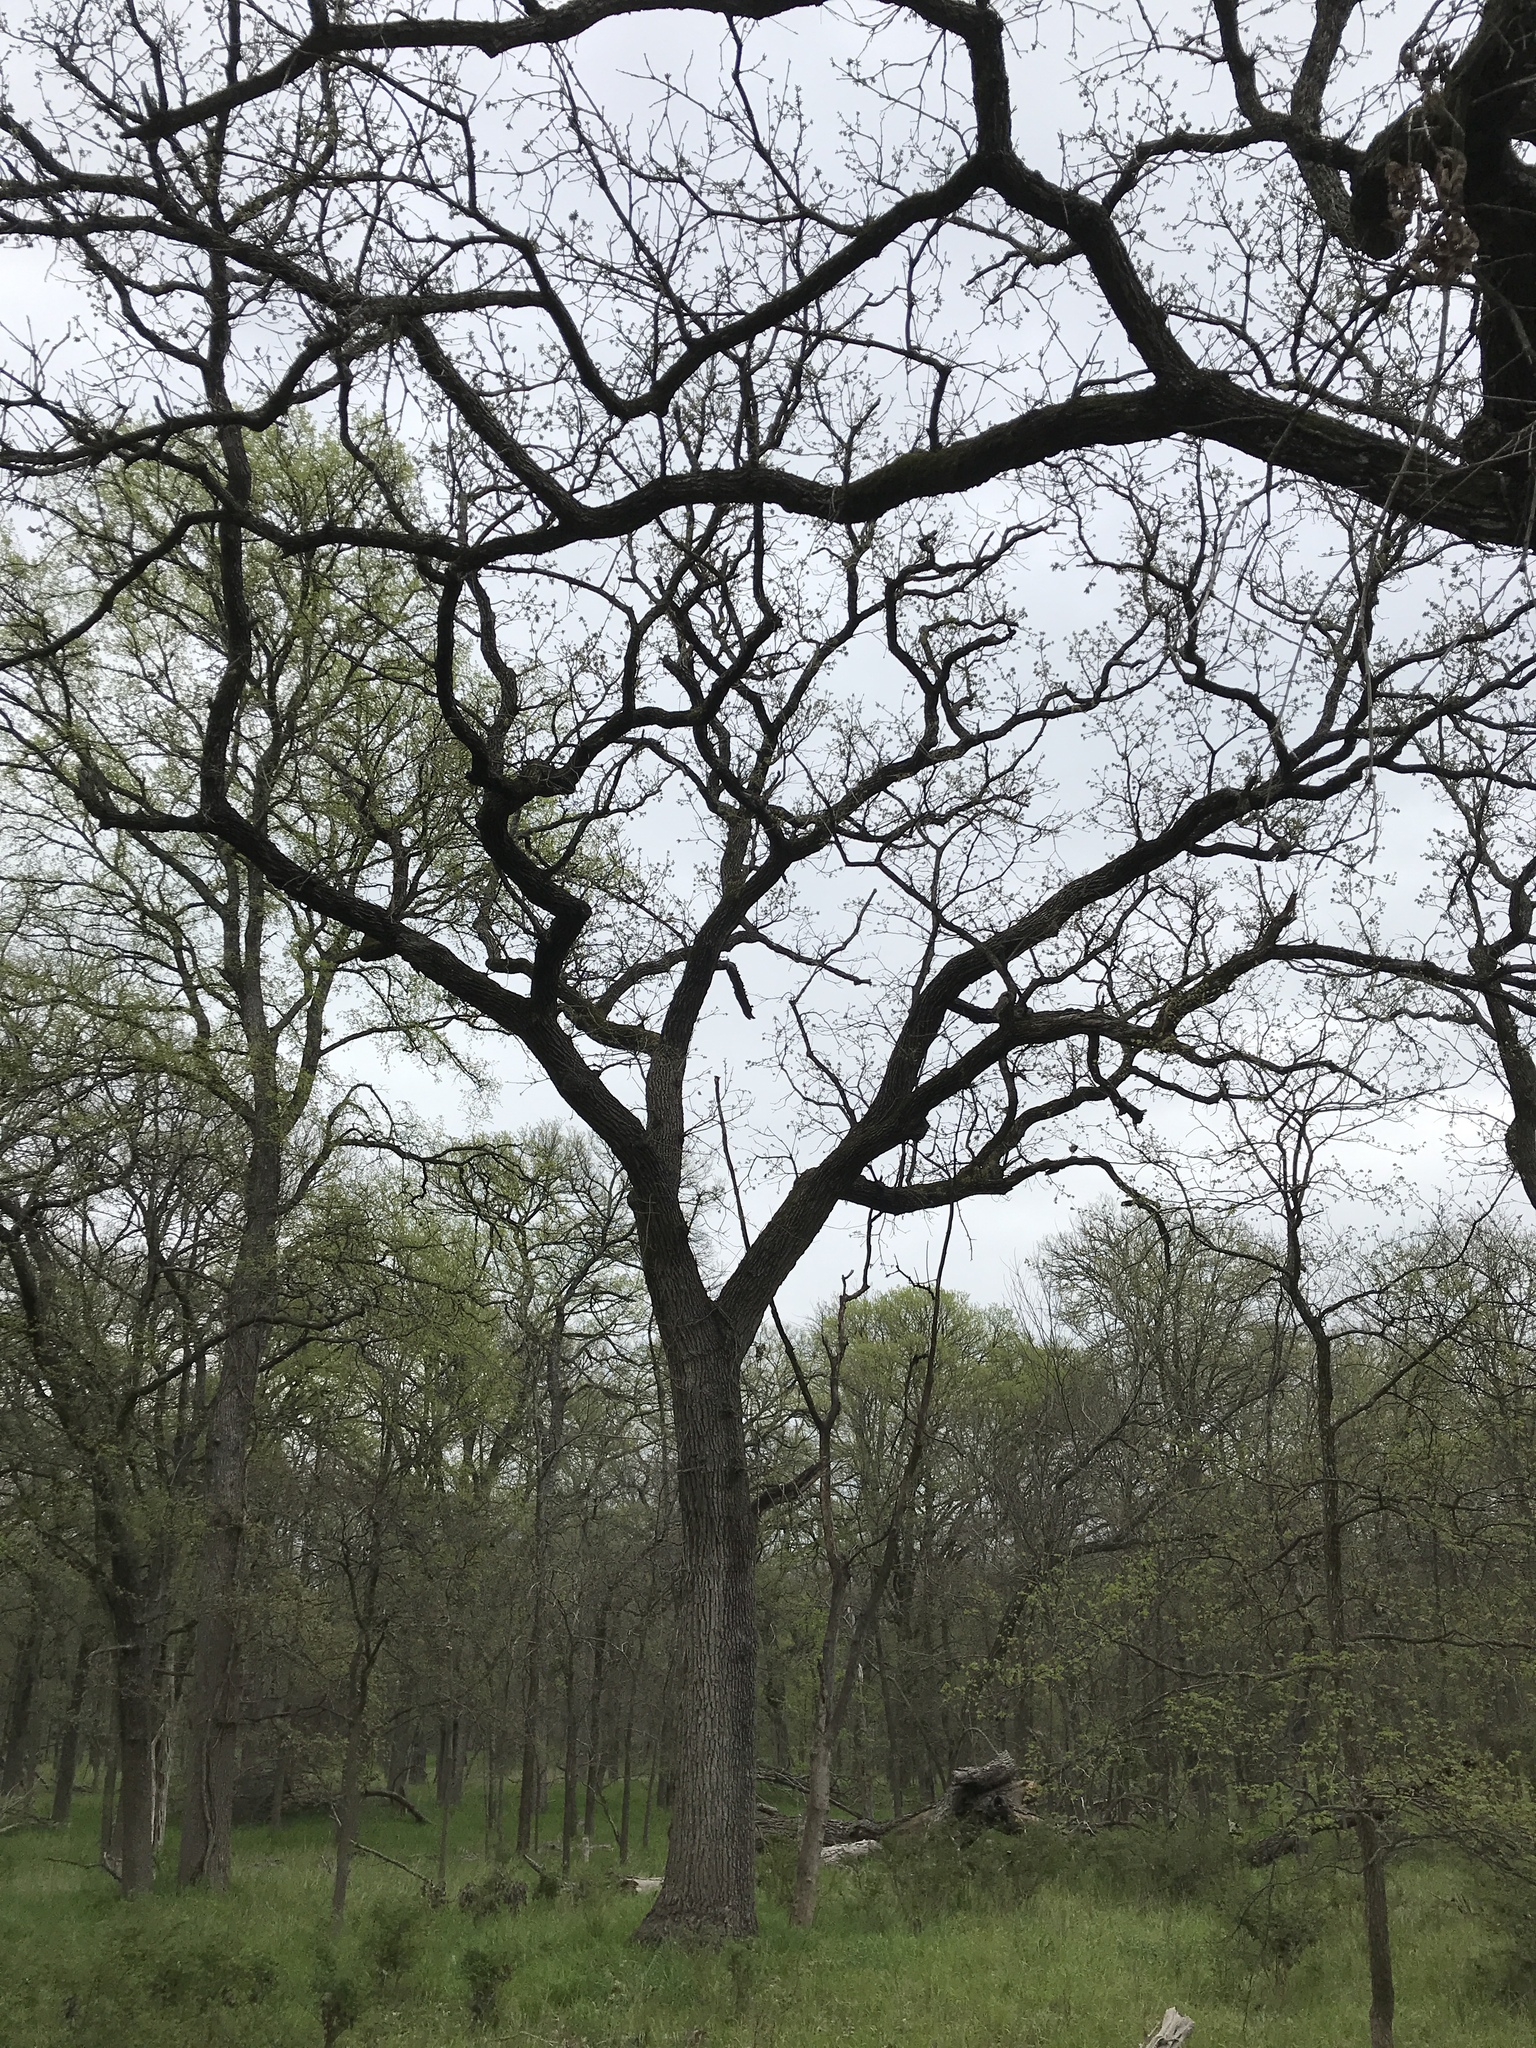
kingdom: Plantae
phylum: Tracheophyta
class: Magnoliopsida
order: Fagales
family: Fagaceae
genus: Quercus
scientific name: Quercus macrocarpa
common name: Bur oak
